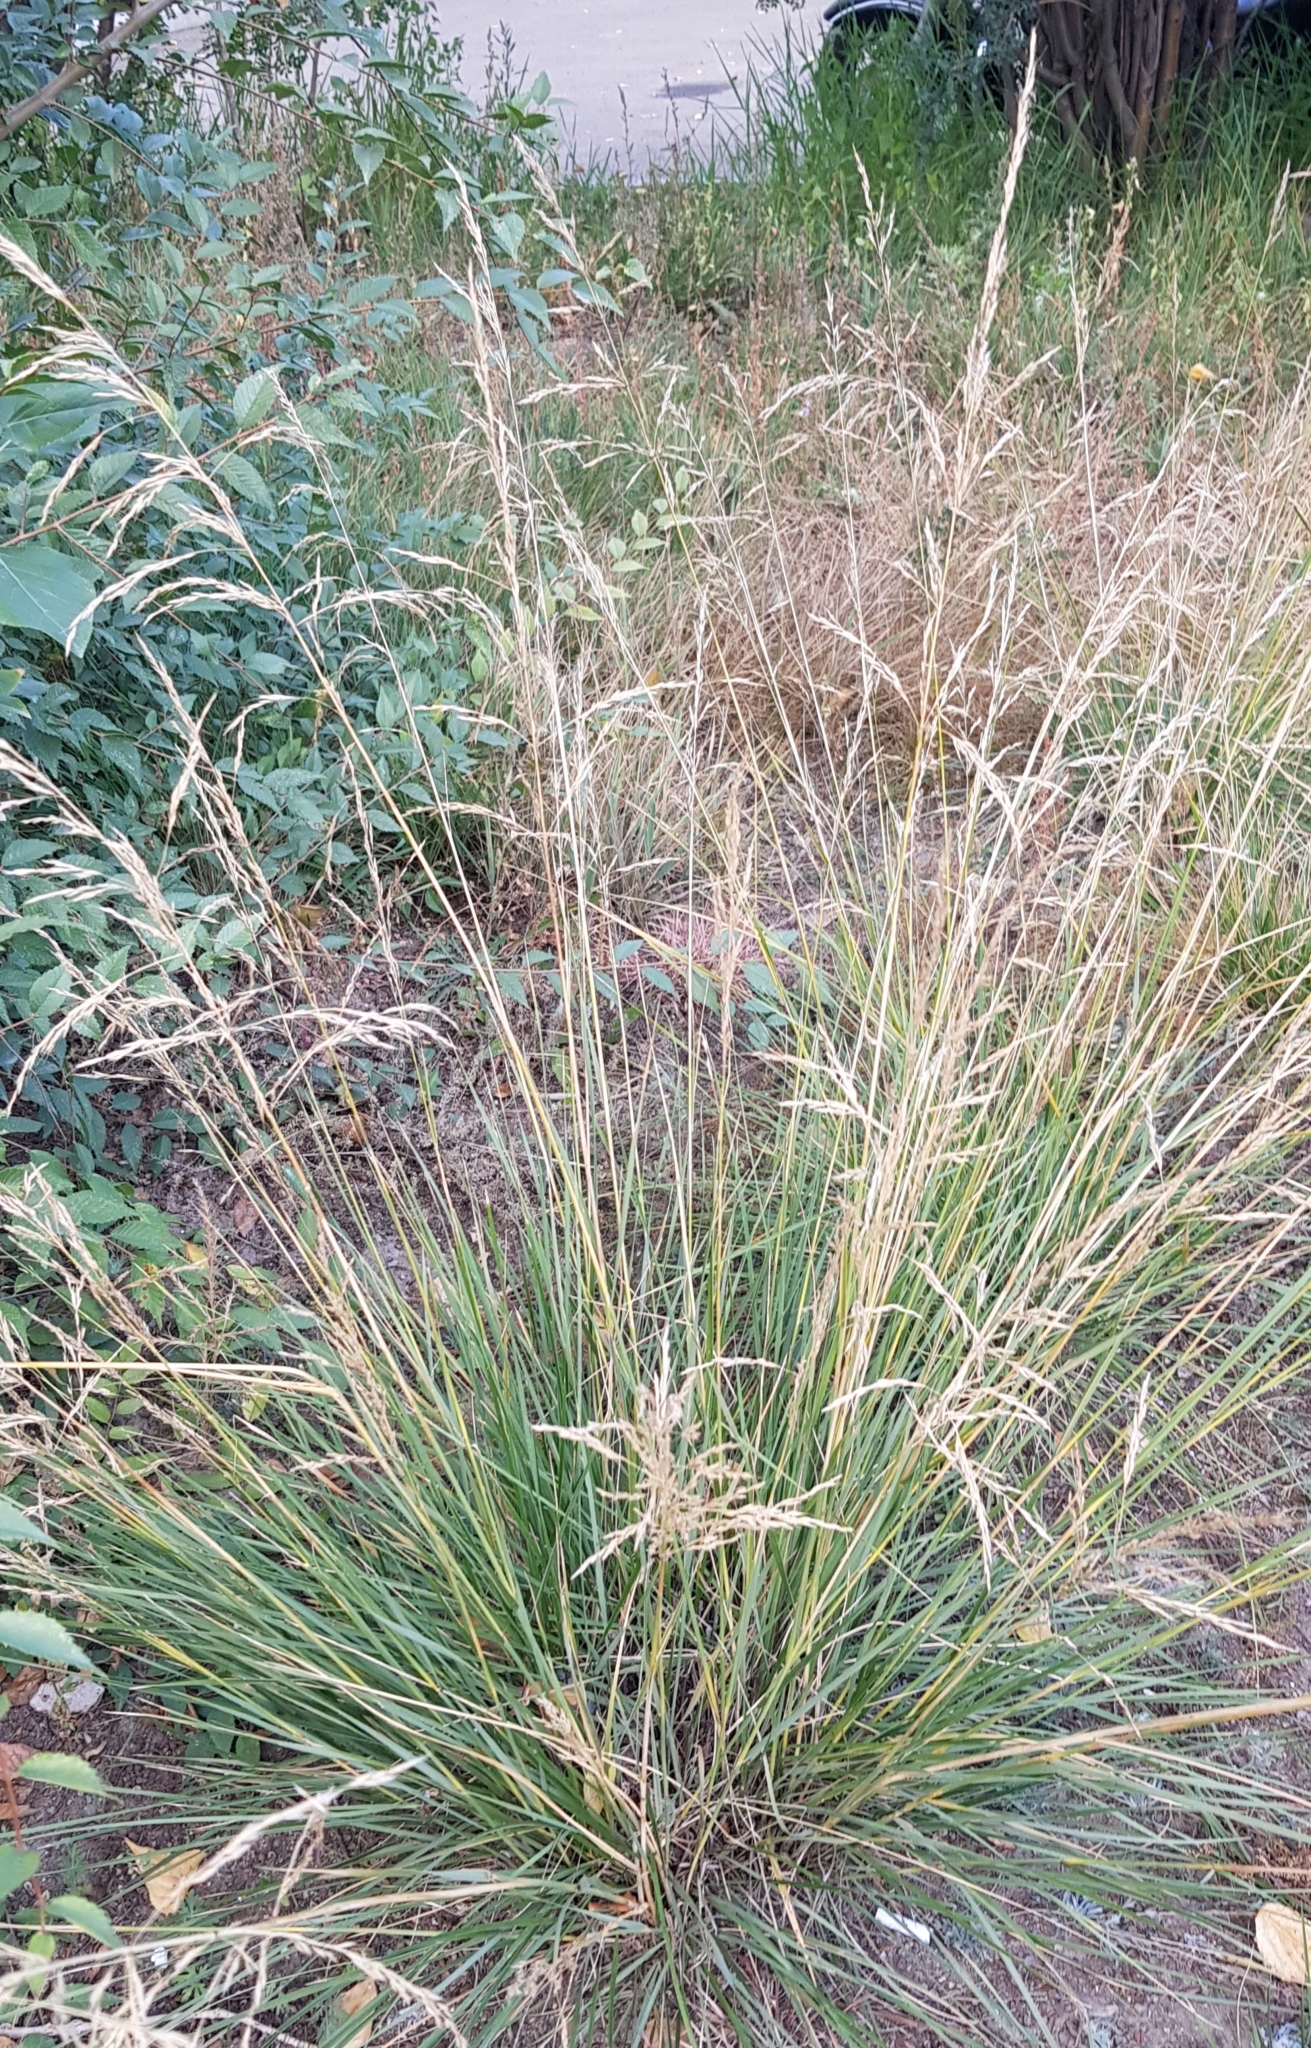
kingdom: Plantae
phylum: Tracheophyta
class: Liliopsida
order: Poales
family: Poaceae
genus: Neotrinia
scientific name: Neotrinia splendens
